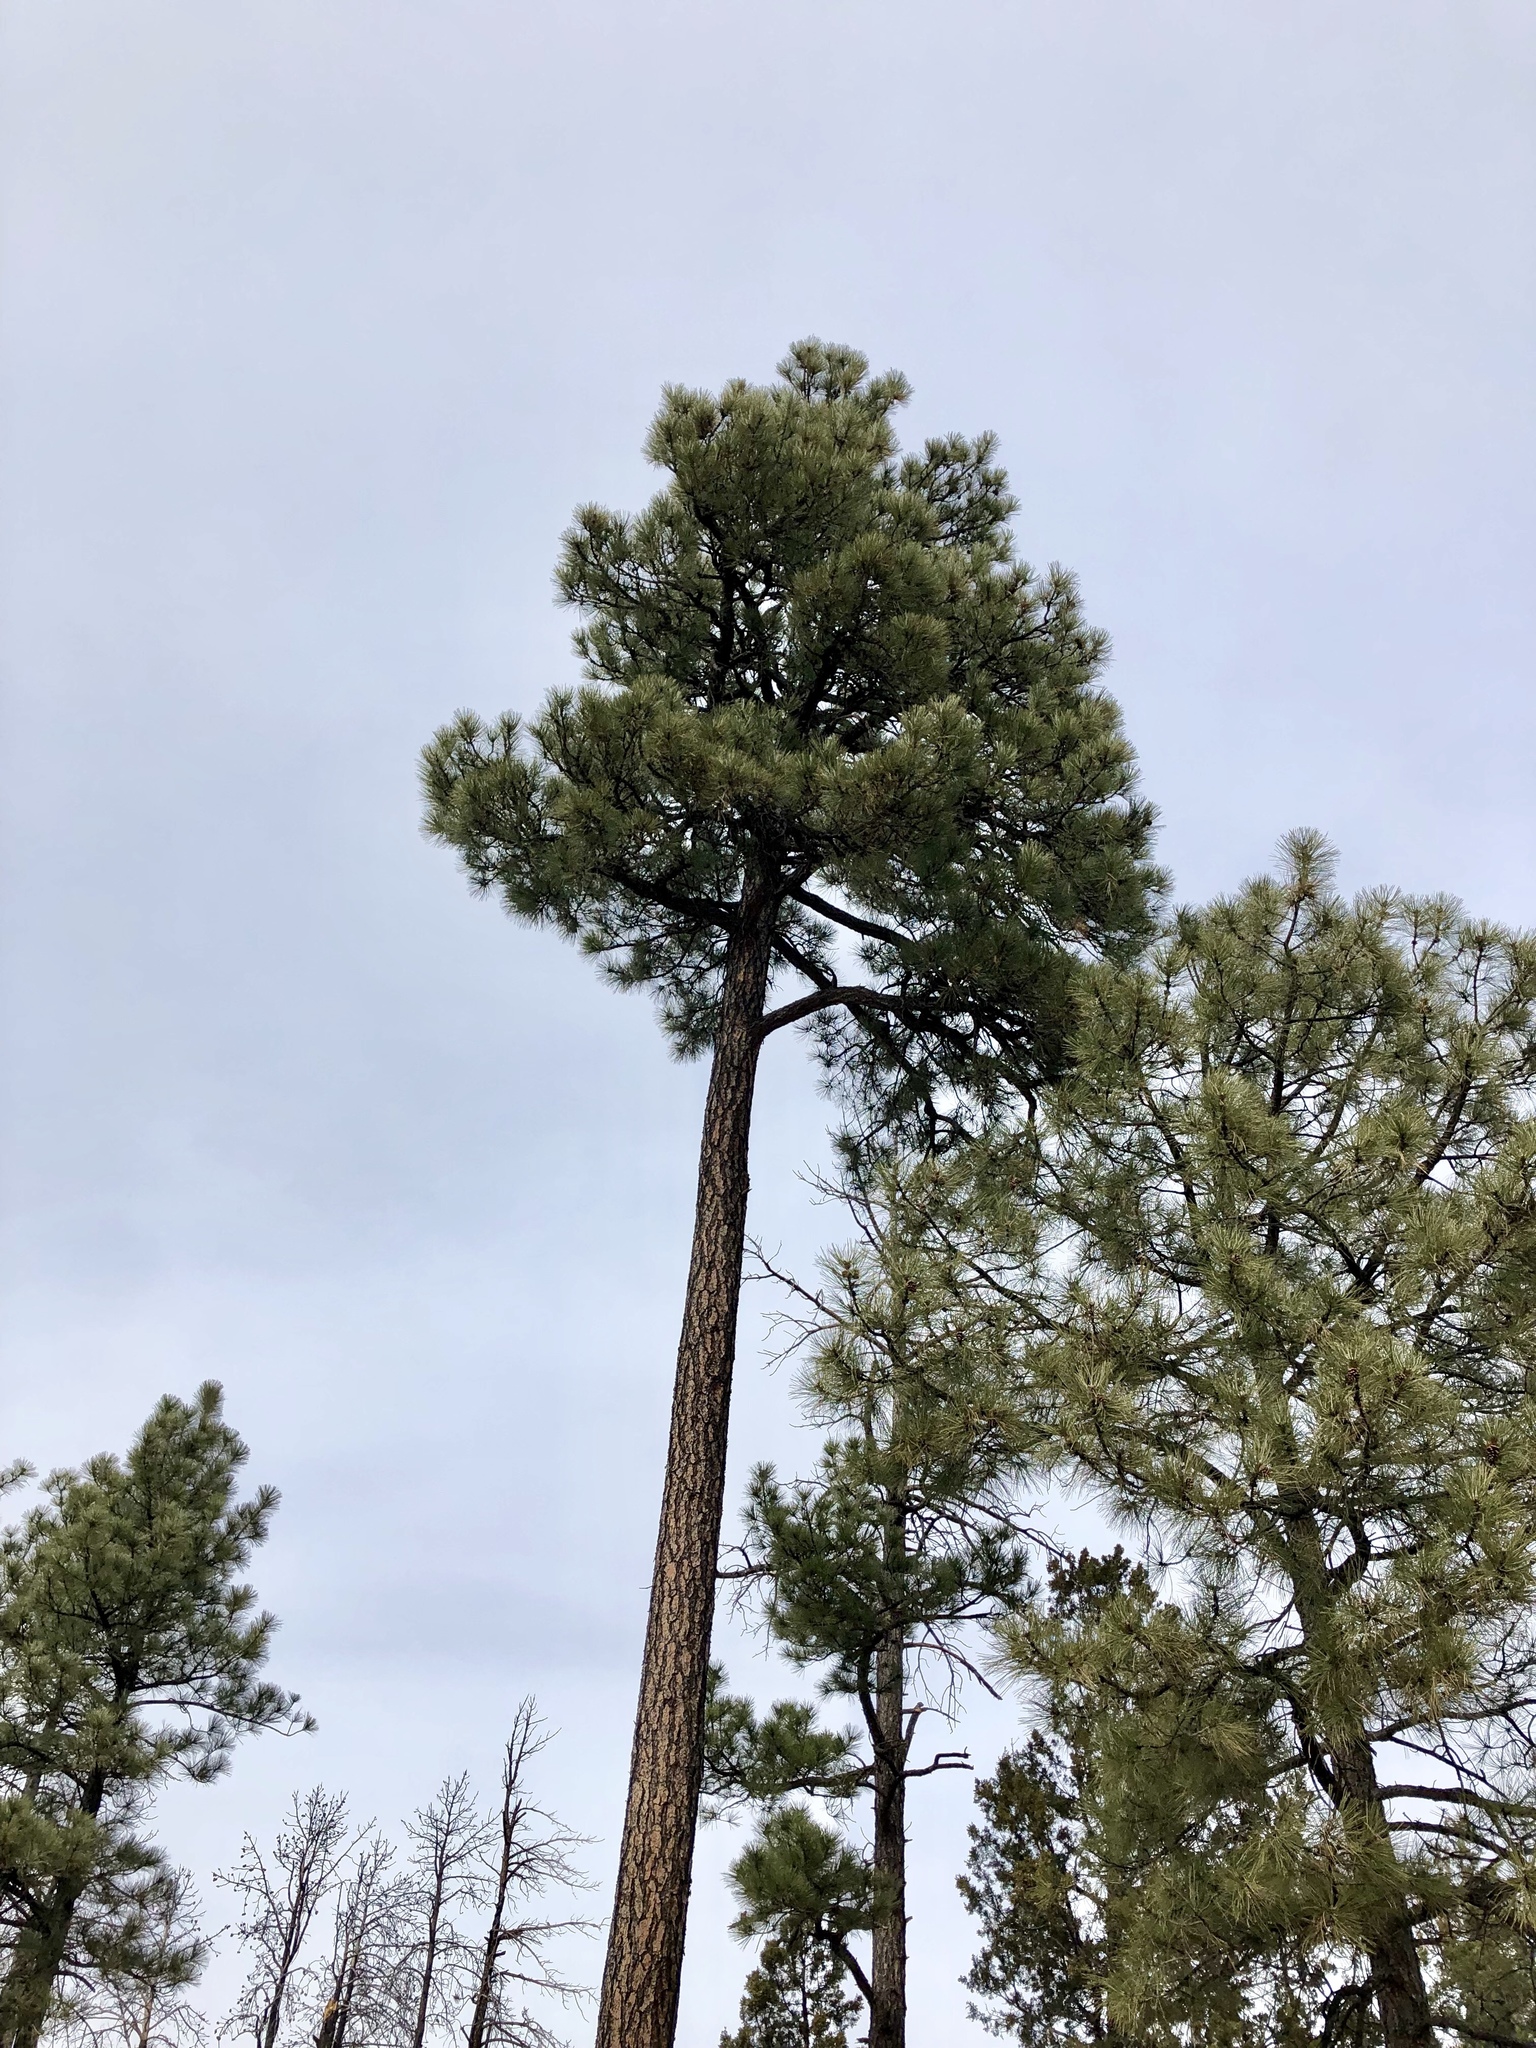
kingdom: Plantae
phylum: Tracheophyta
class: Pinopsida
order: Pinales
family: Pinaceae
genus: Pinus
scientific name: Pinus ponderosa
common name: Western yellow-pine
